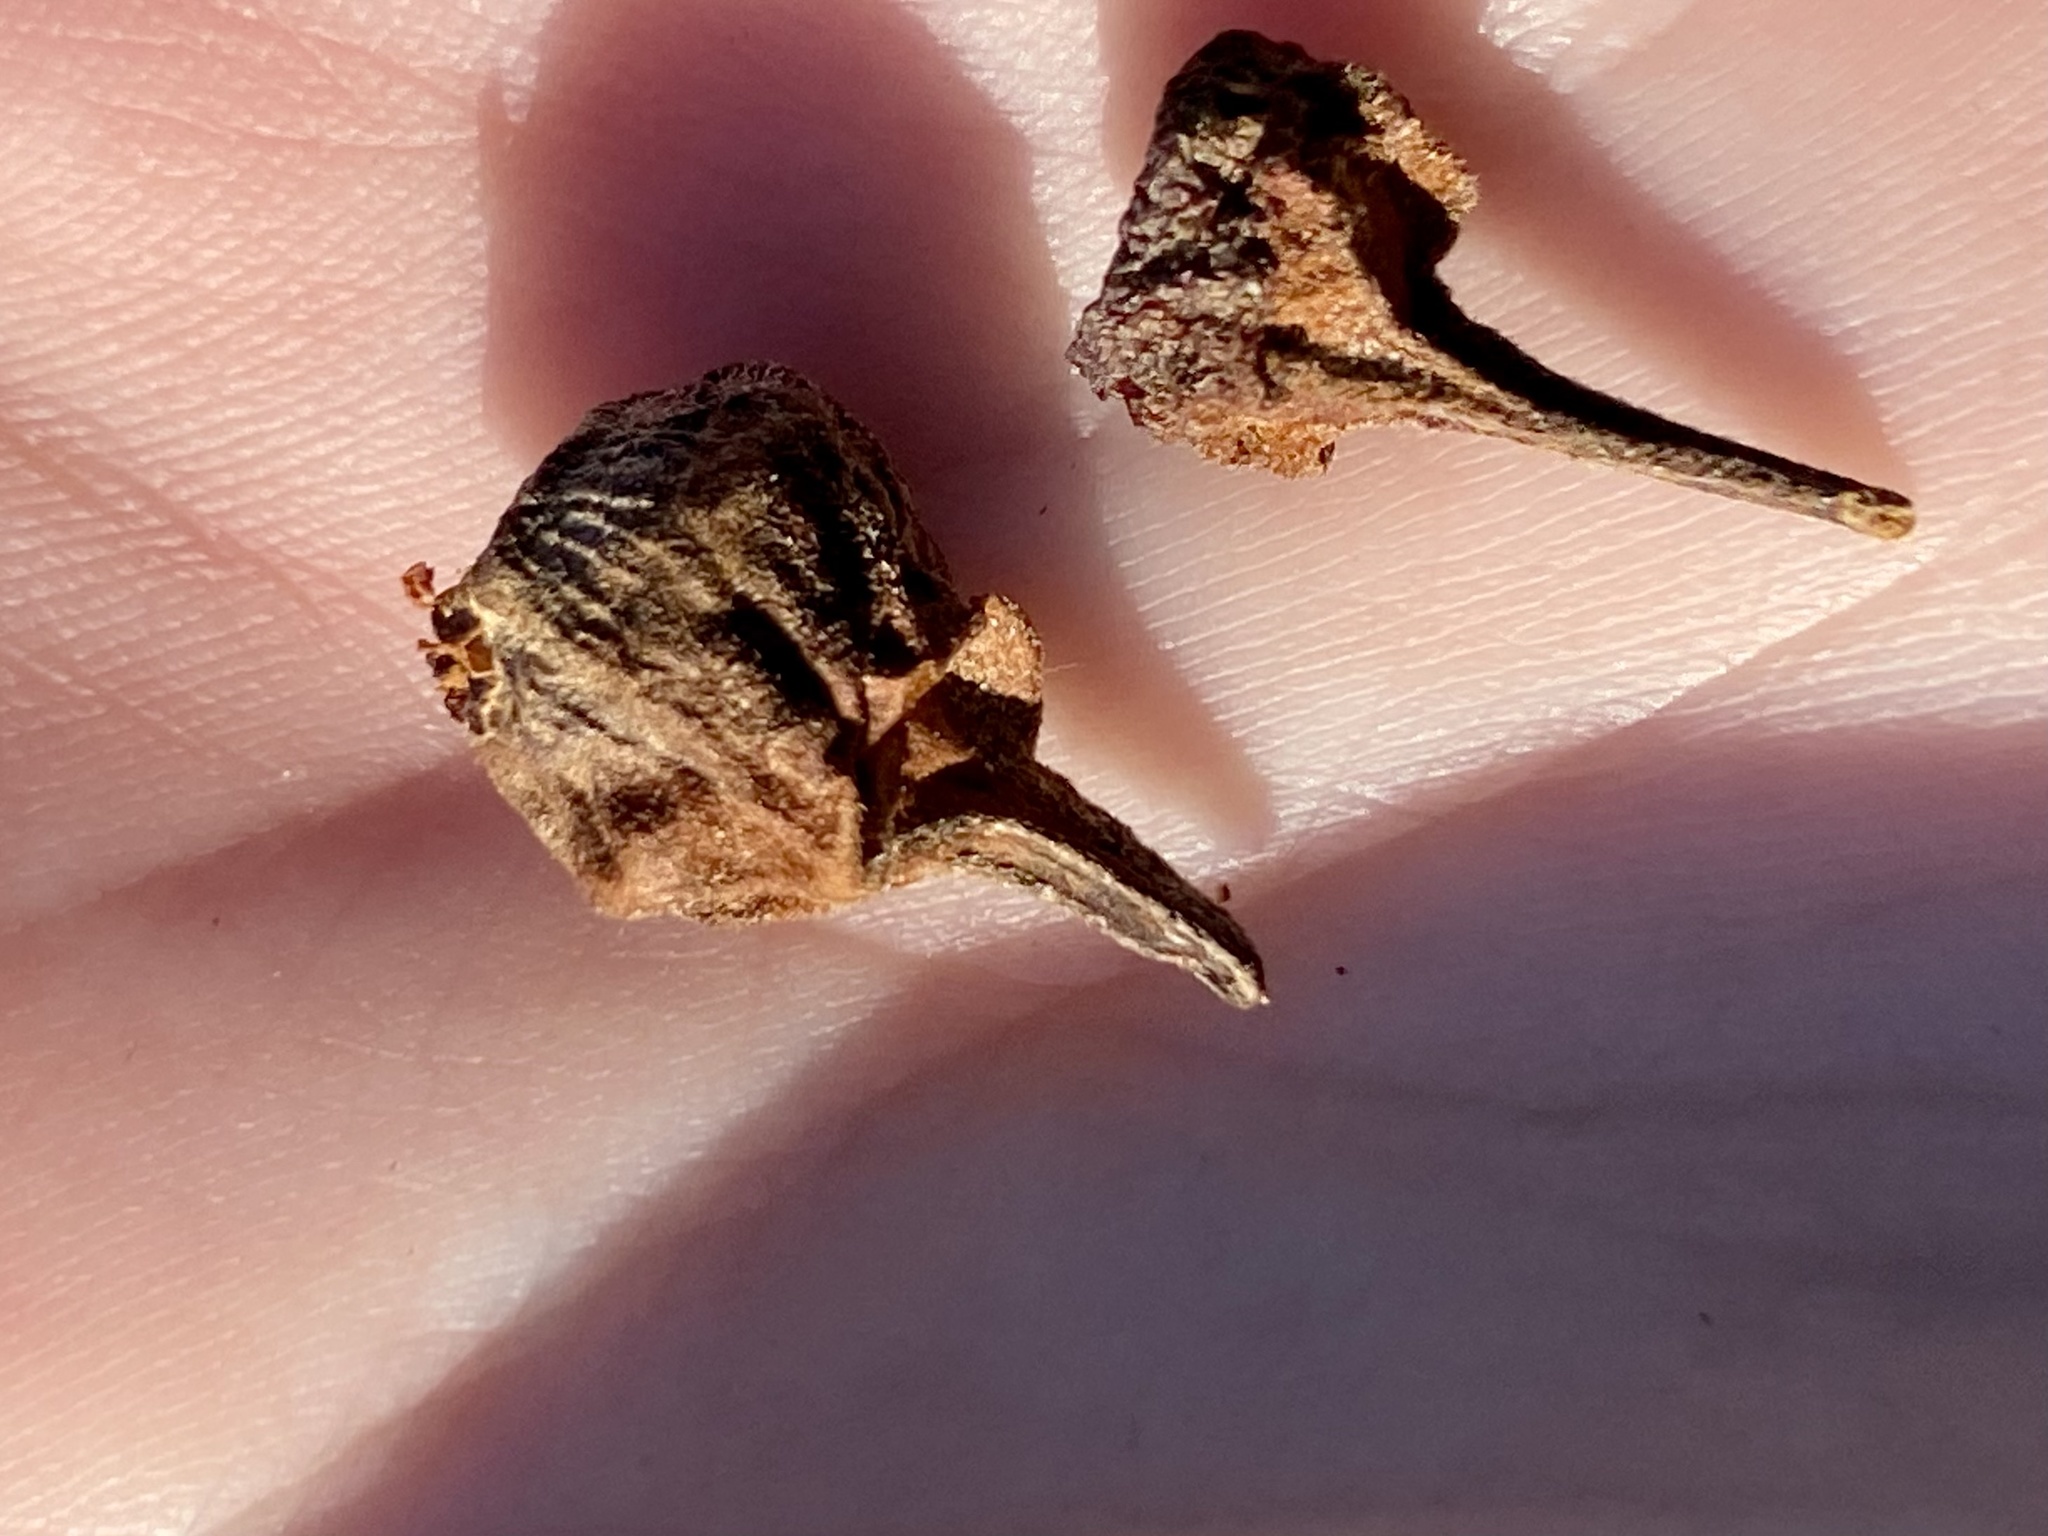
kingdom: Animalia
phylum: Arthropoda
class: Insecta
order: Hymenoptera
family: Cynipidae
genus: Andricus
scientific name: Andricus
